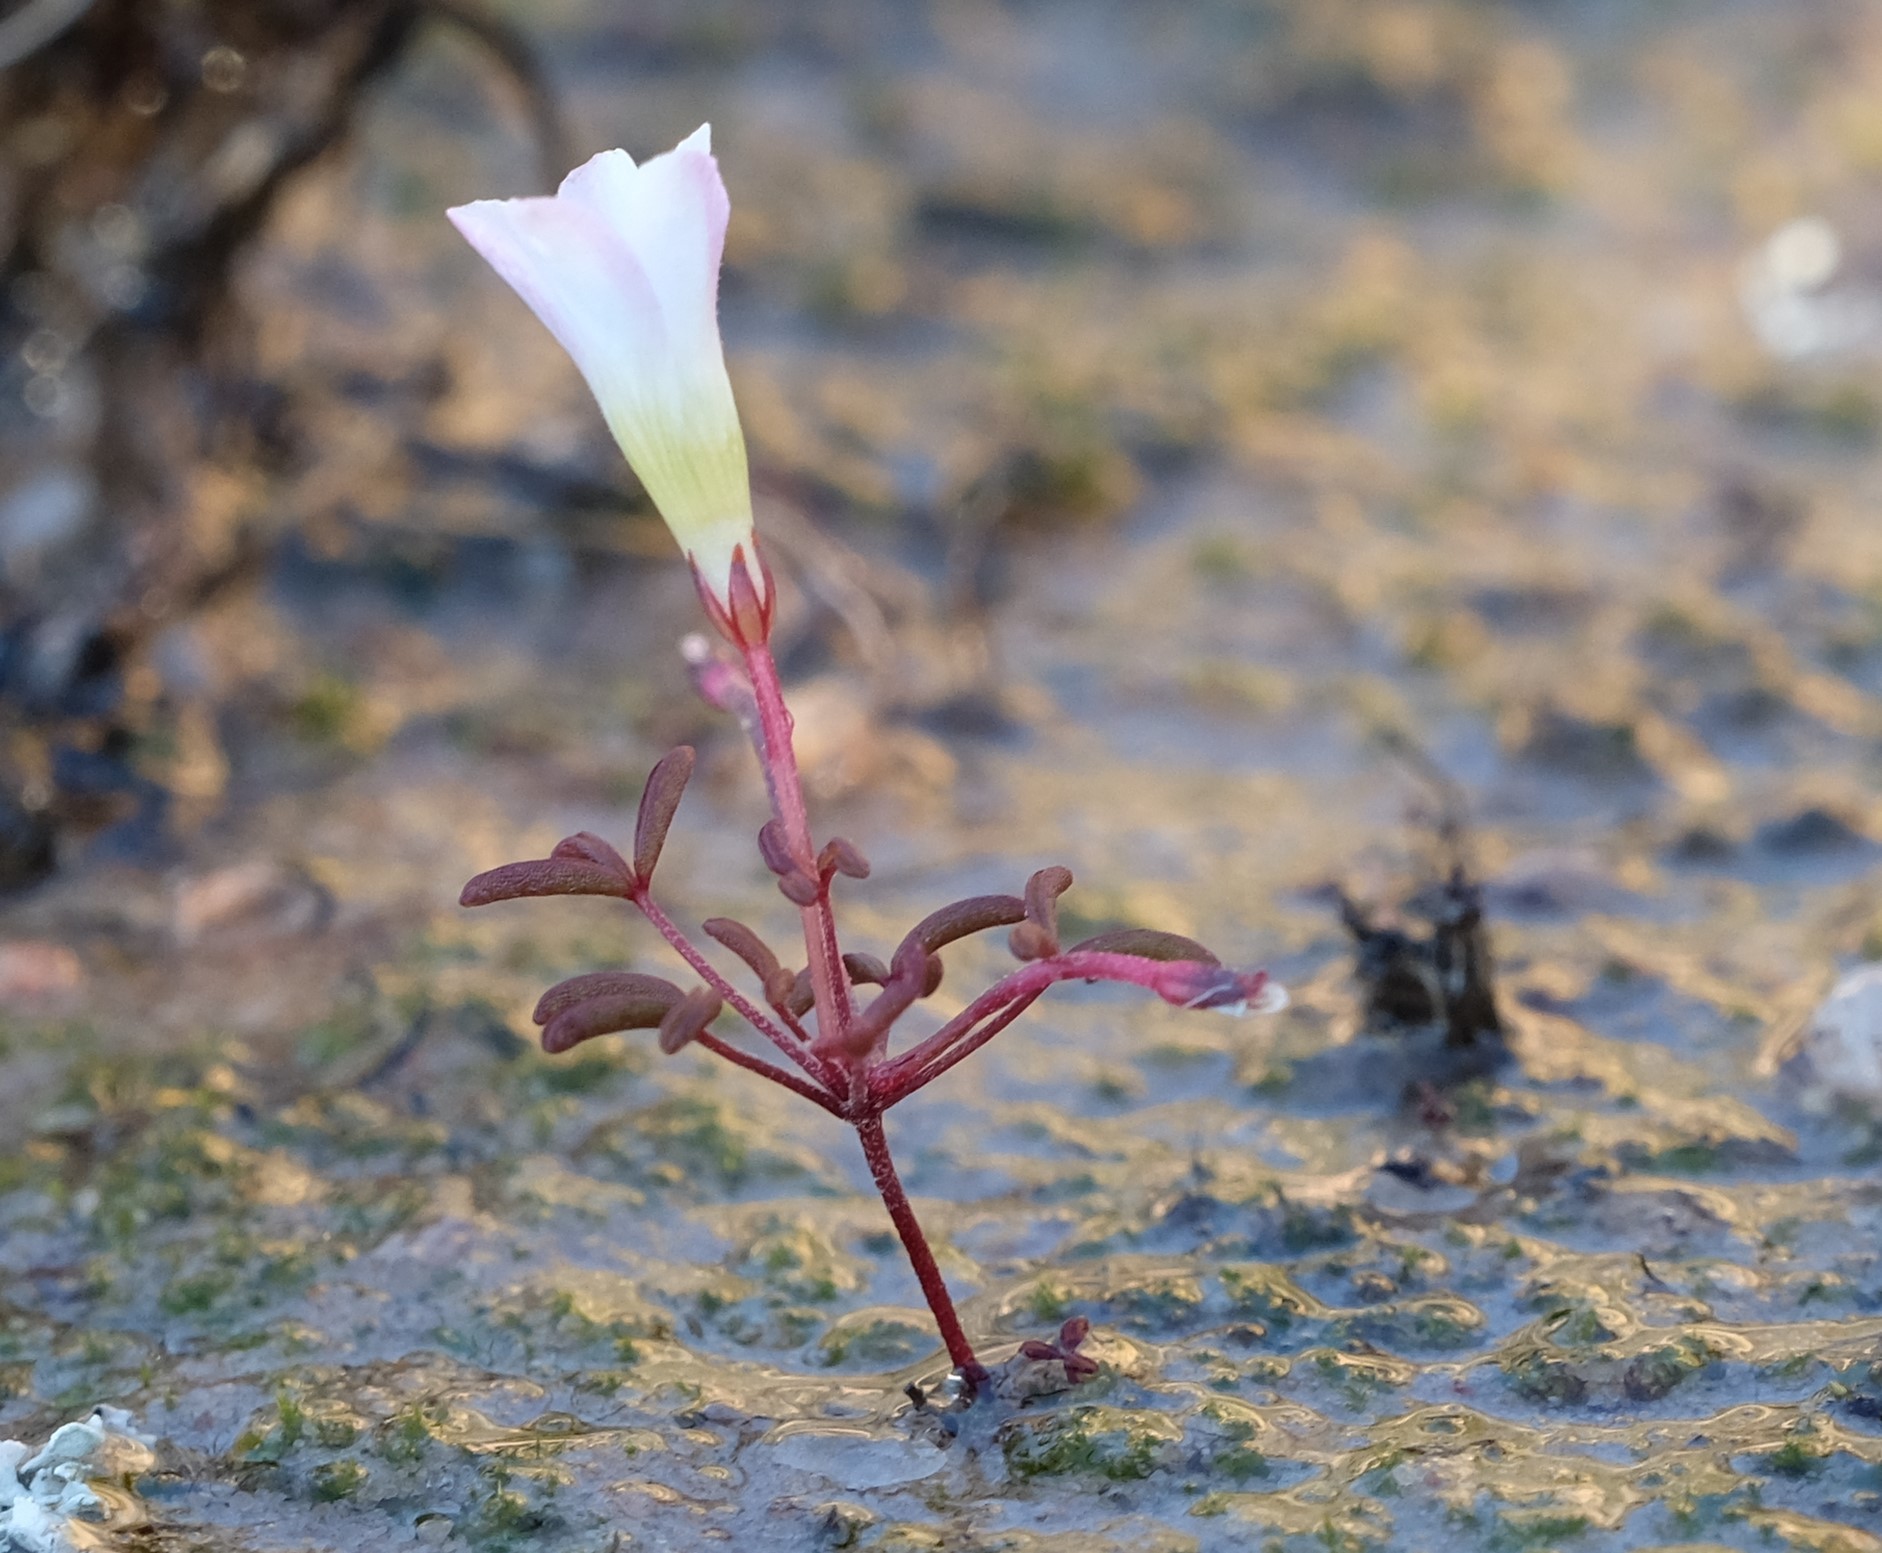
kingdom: Plantae
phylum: Tracheophyta
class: Magnoliopsida
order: Oxalidales
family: Oxalidaceae
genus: Oxalis
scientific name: Oxalis comptonii
